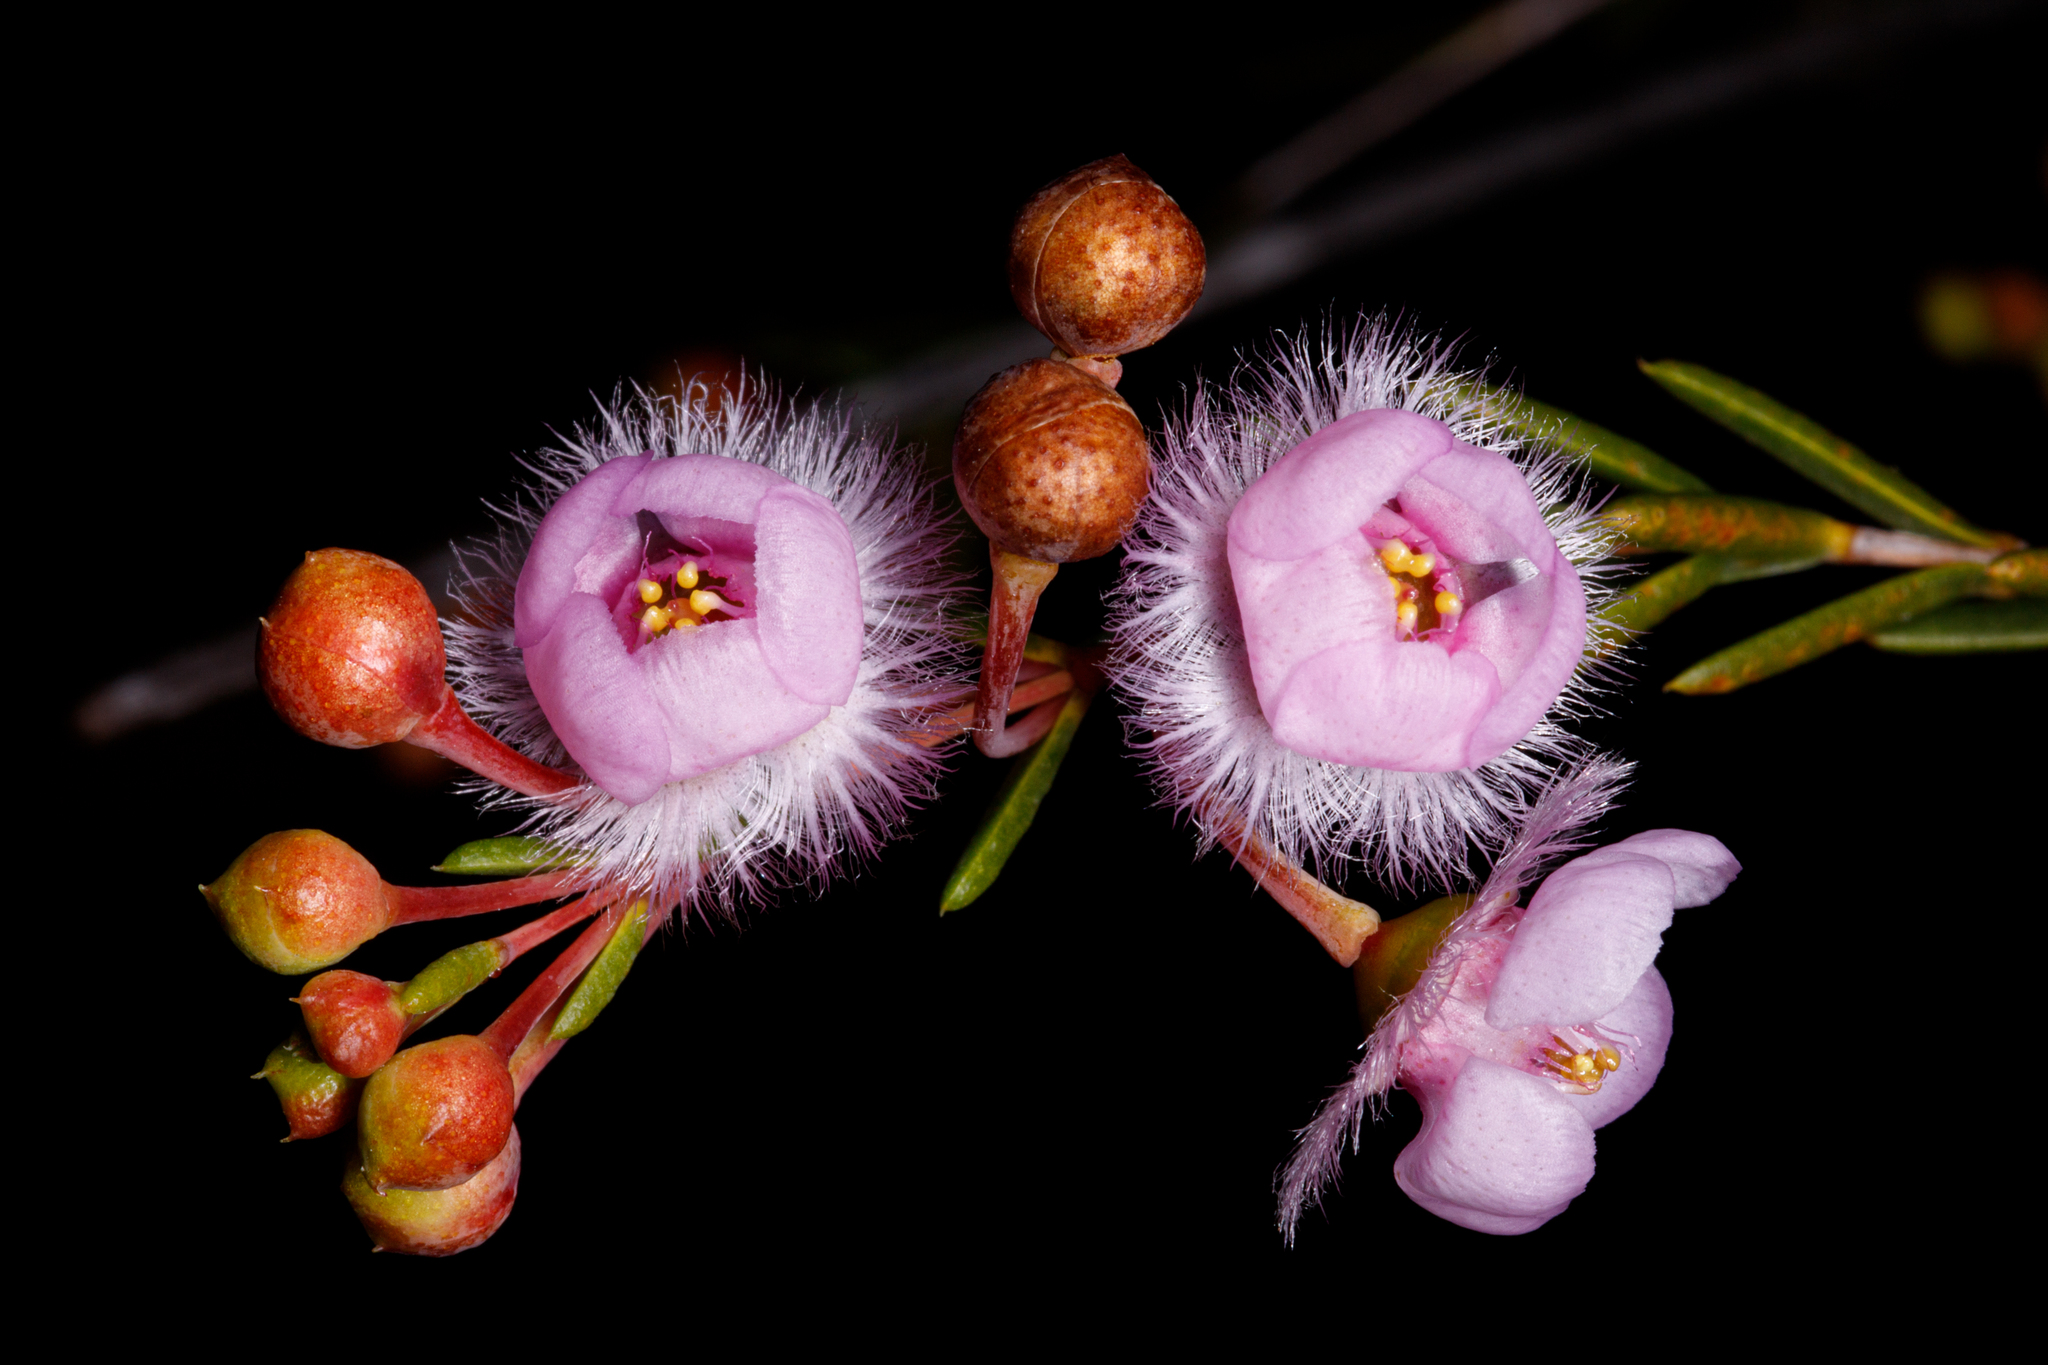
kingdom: Plantae
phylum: Tracheophyta
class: Magnoliopsida
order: Myrtales
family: Myrtaceae
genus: Verticordia
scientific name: Verticordia picta
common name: Painted feather-flower
